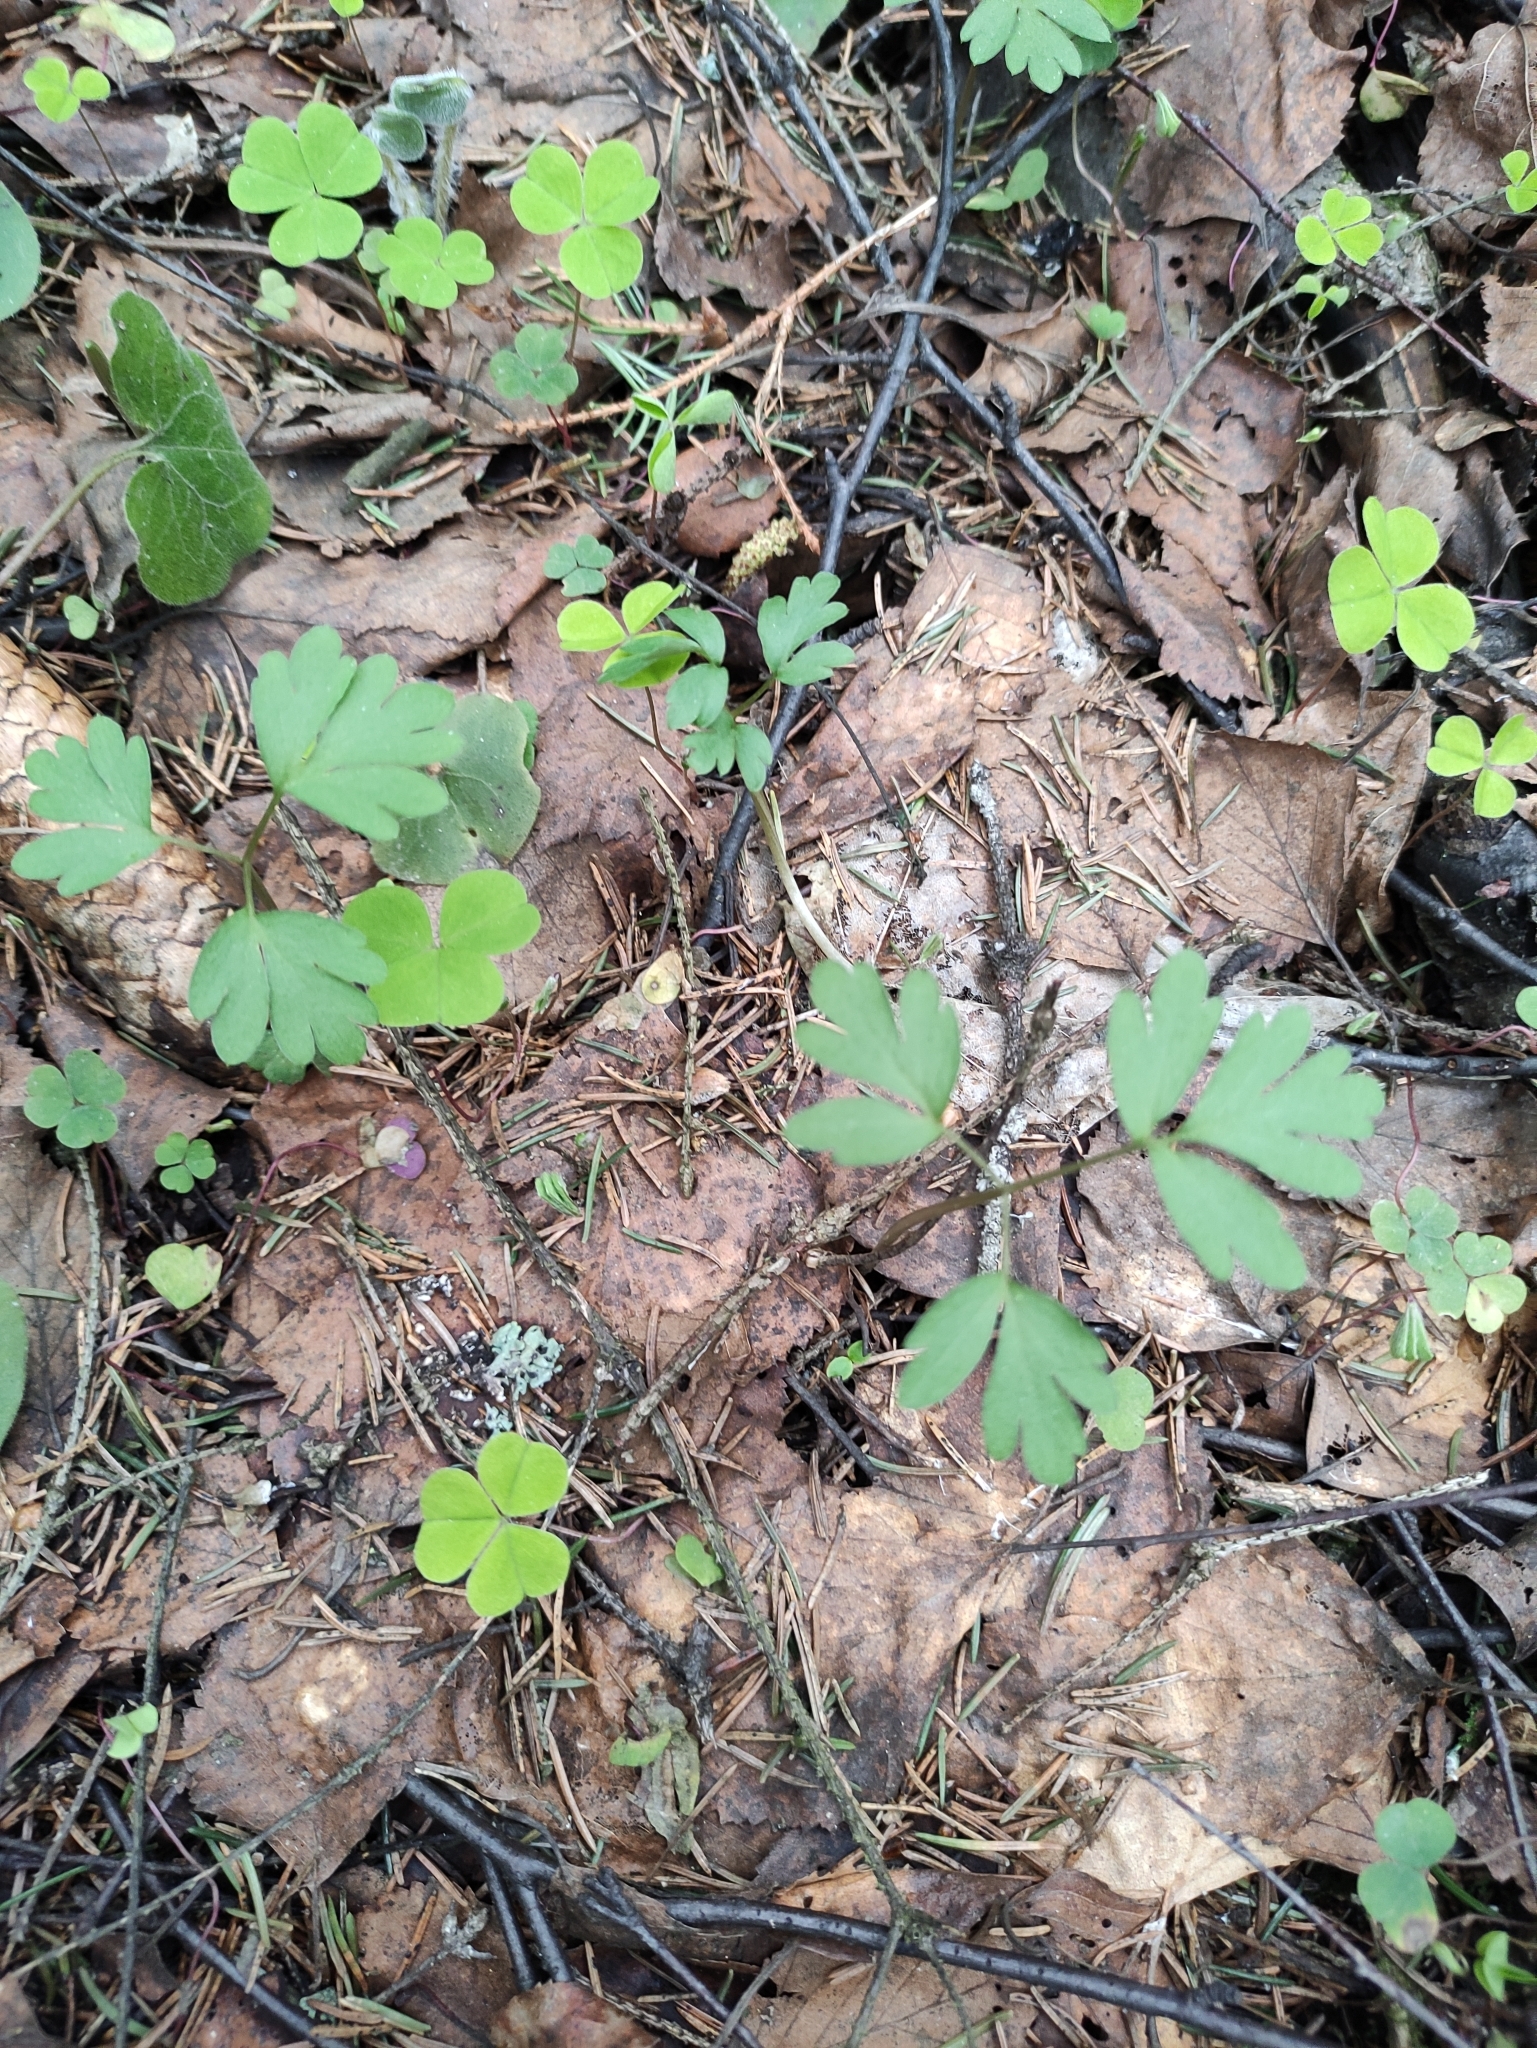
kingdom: Plantae
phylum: Tracheophyta
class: Magnoliopsida
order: Dipsacales
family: Viburnaceae
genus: Adoxa
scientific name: Adoxa moschatellina
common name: Moschatel
